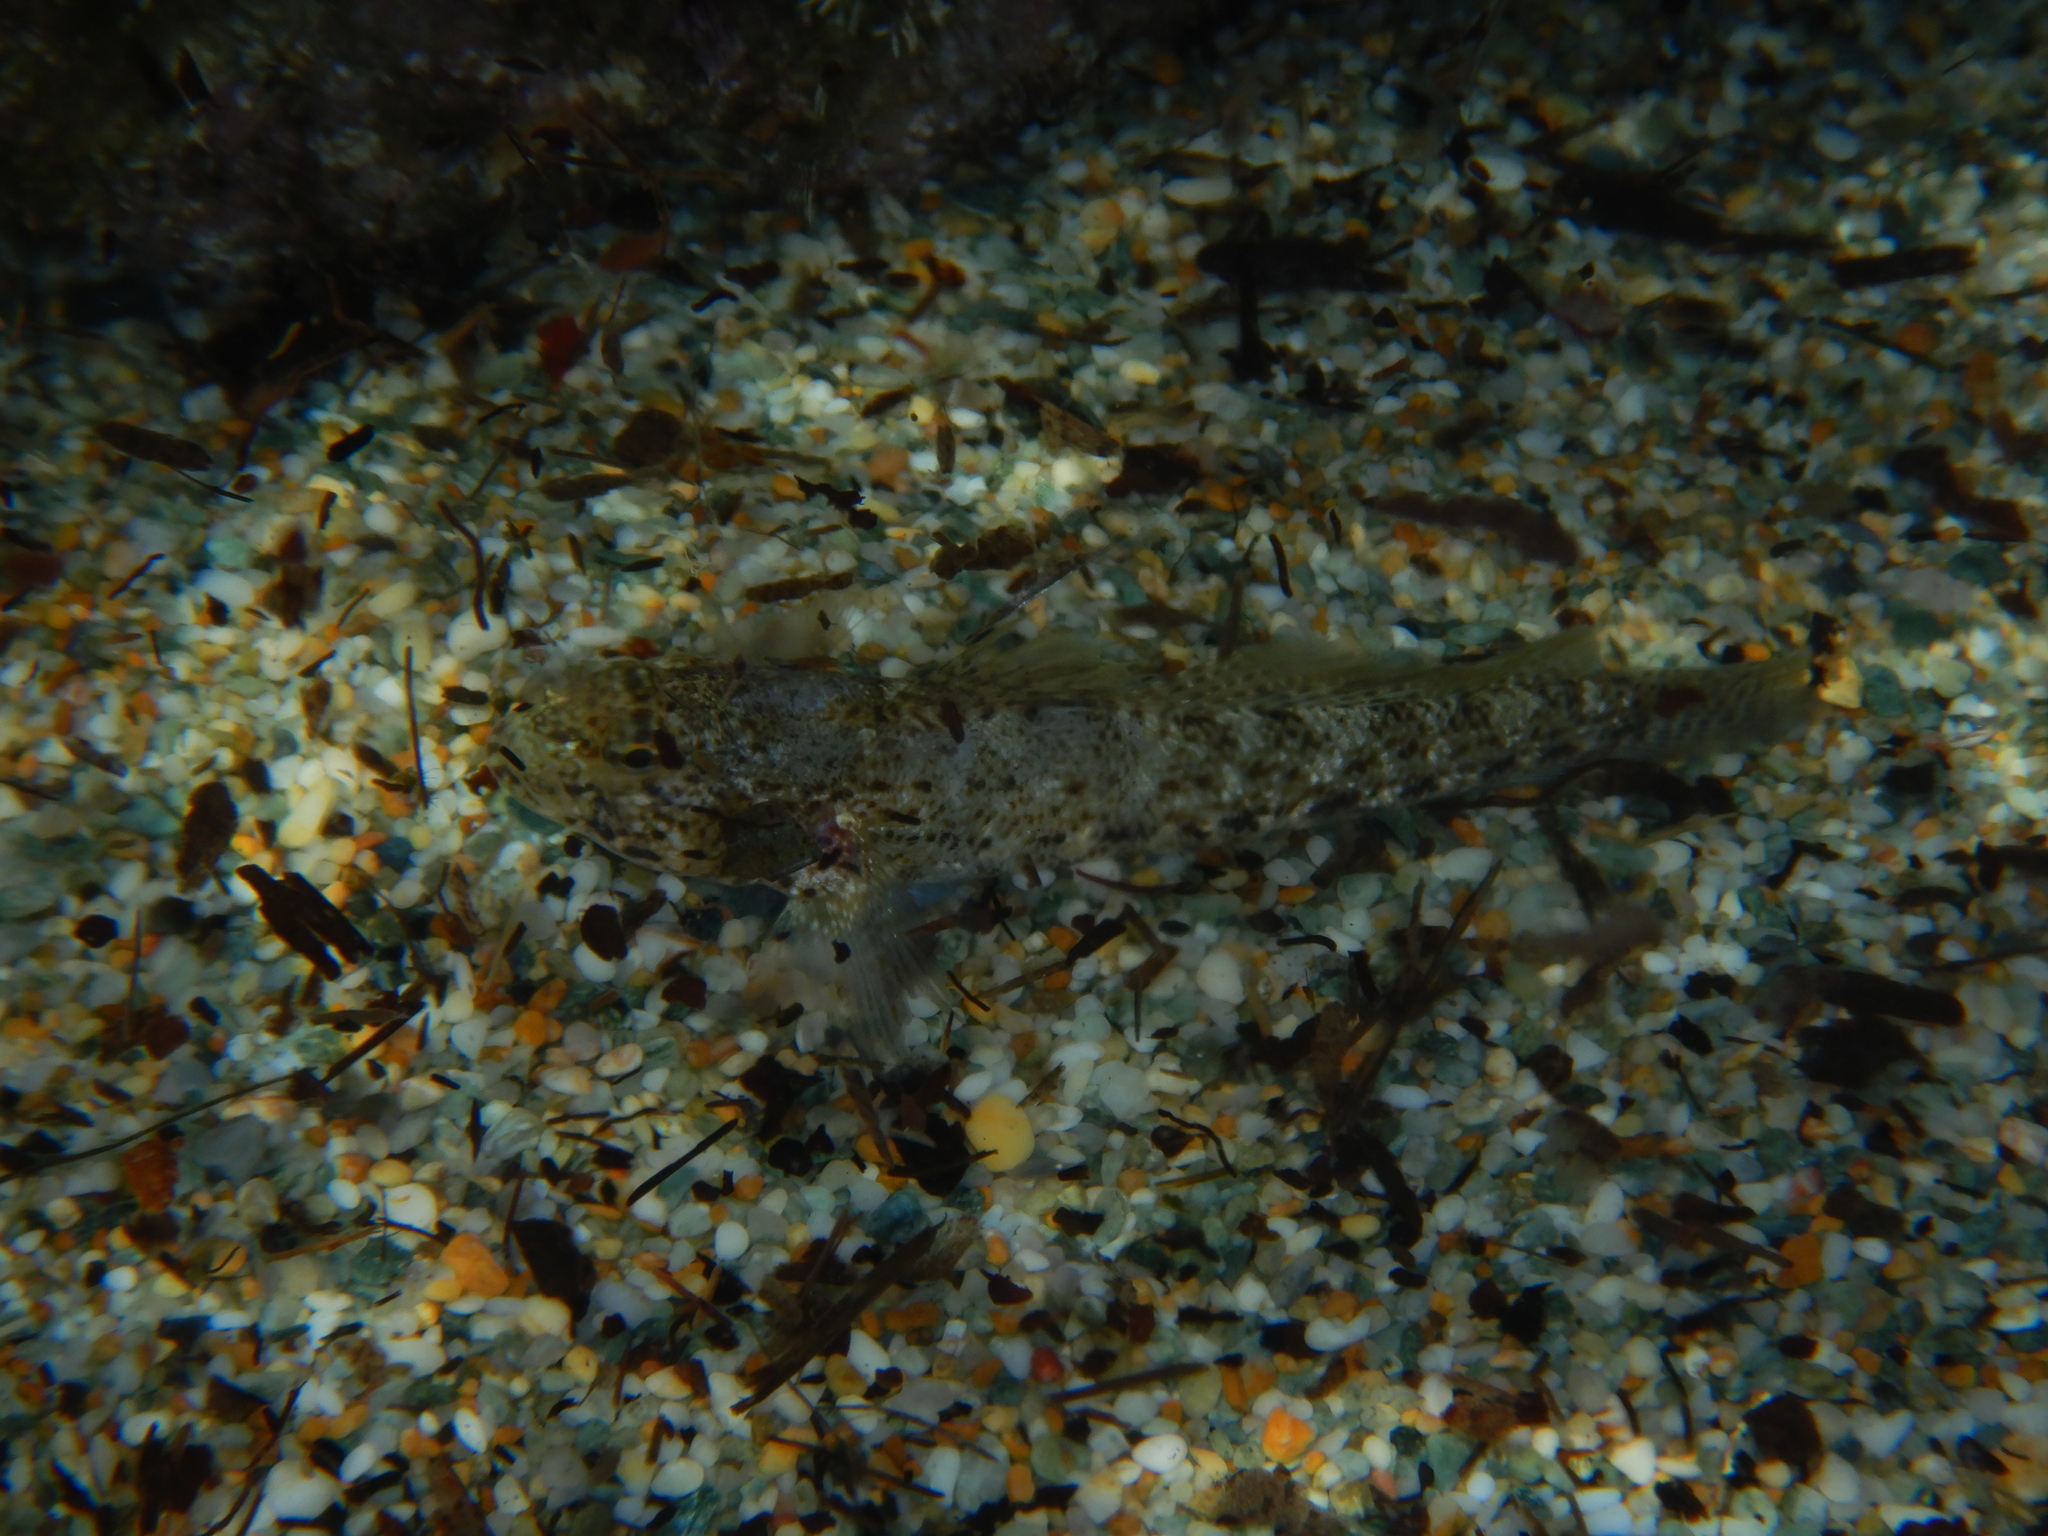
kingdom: Animalia
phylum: Chordata
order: Perciformes
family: Gobiidae
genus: Gobius
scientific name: Gobius incognitus
